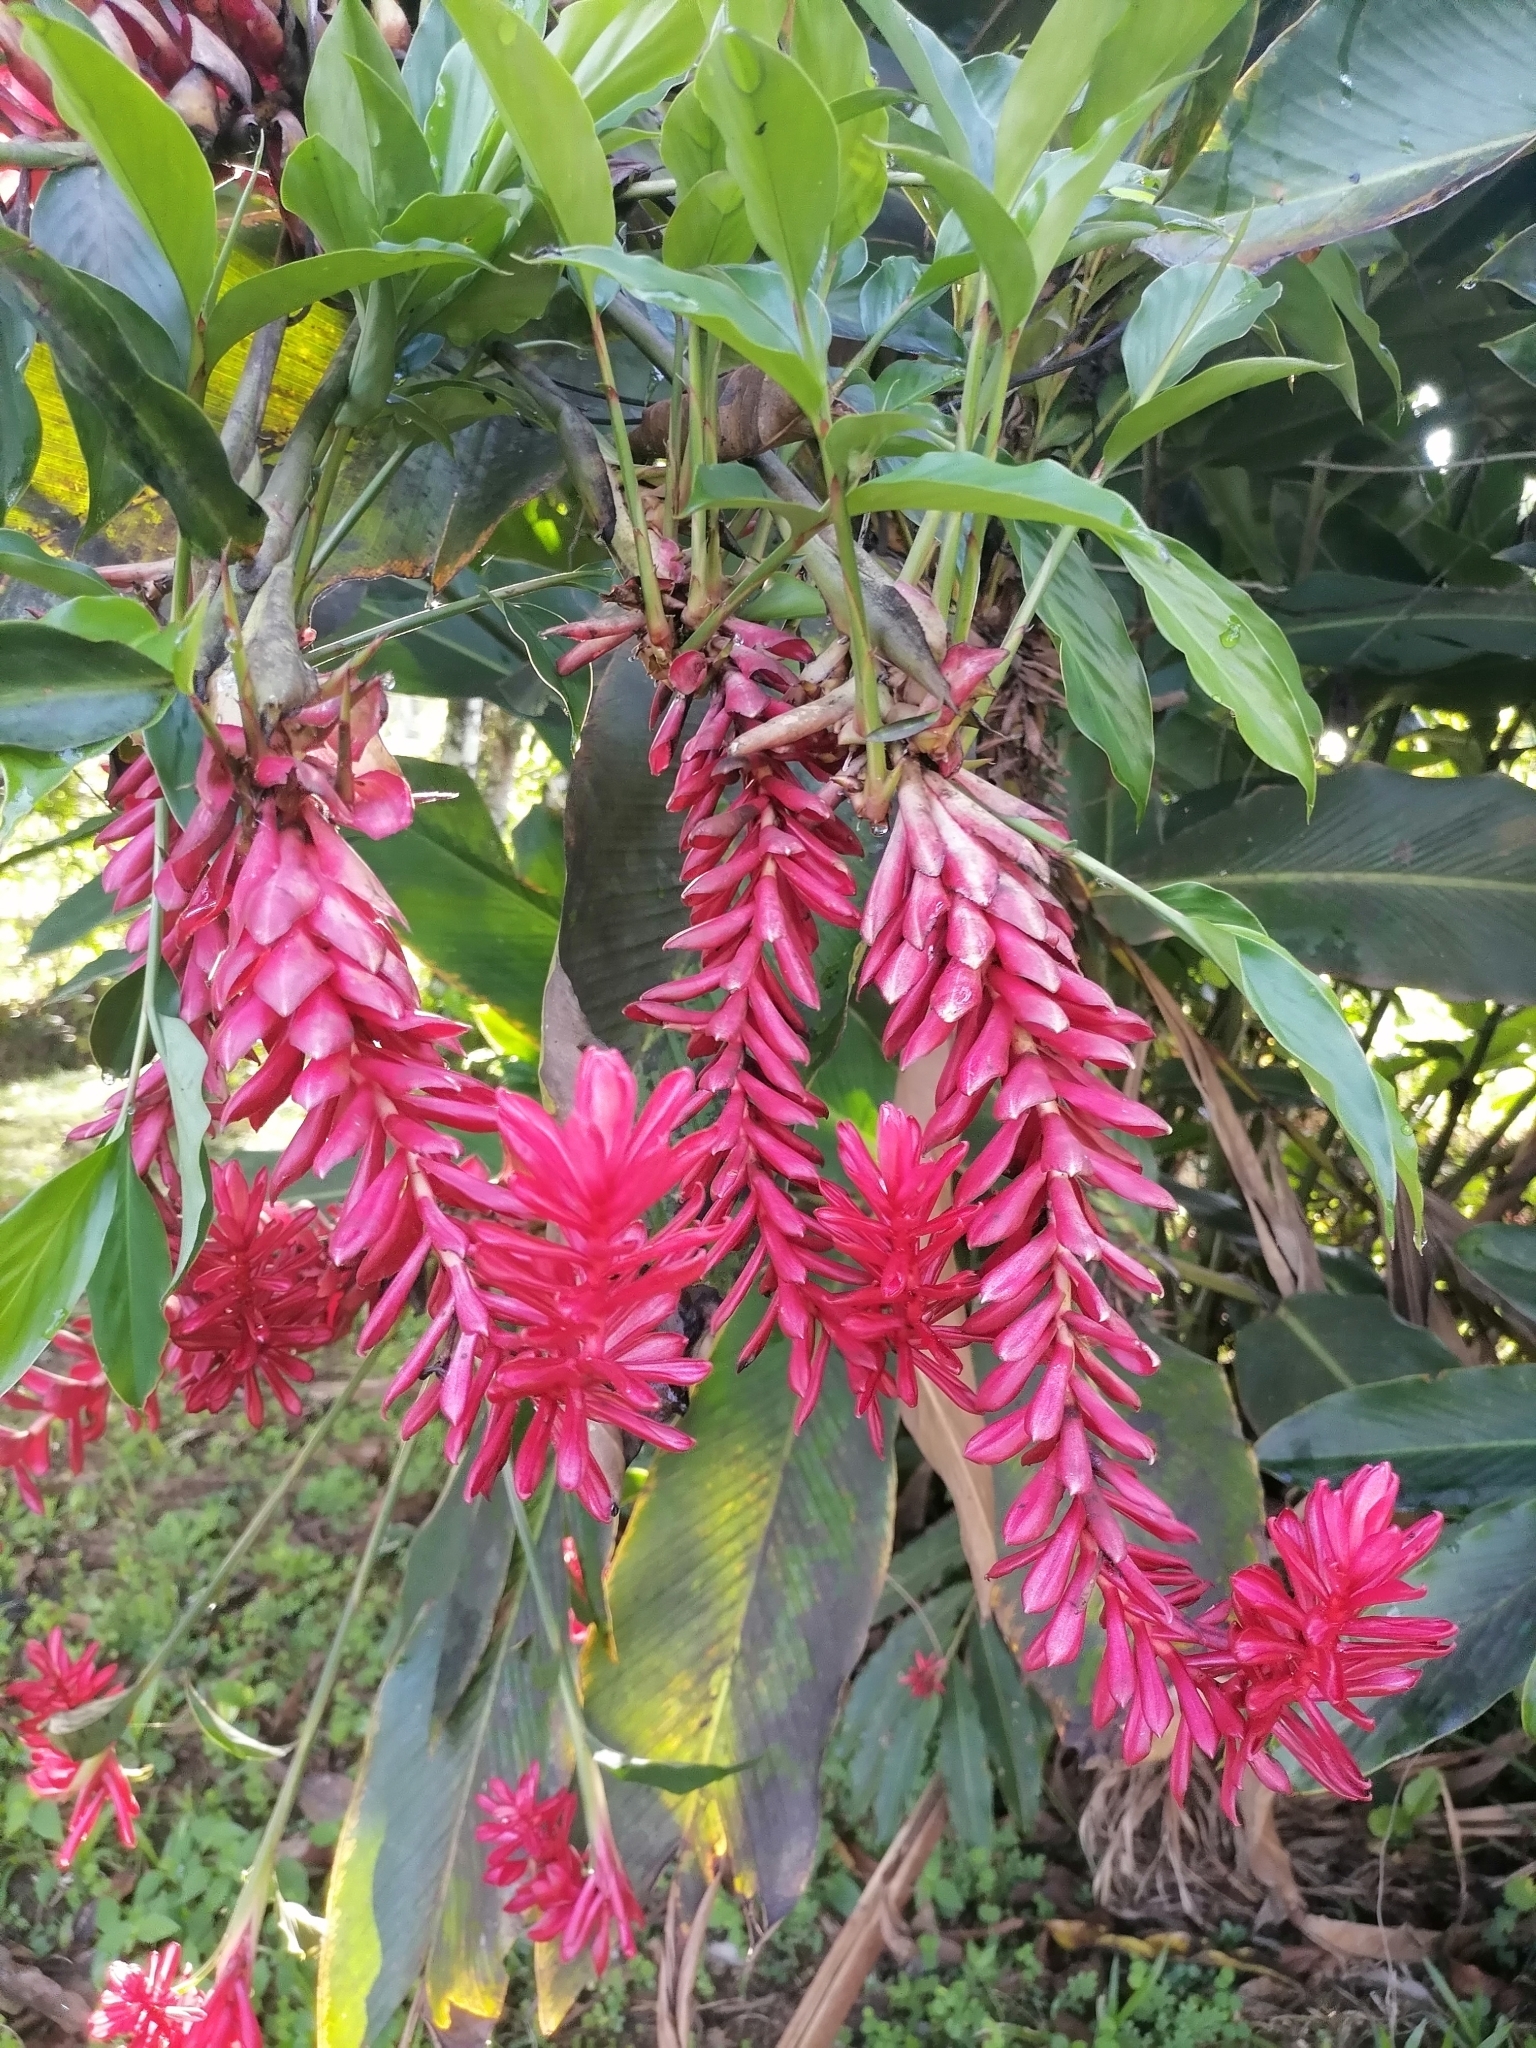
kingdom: Plantae
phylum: Tracheophyta
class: Liliopsida
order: Zingiberales
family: Zingiberaceae
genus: Alpinia
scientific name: Alpinia purpurata
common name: Red ginger
